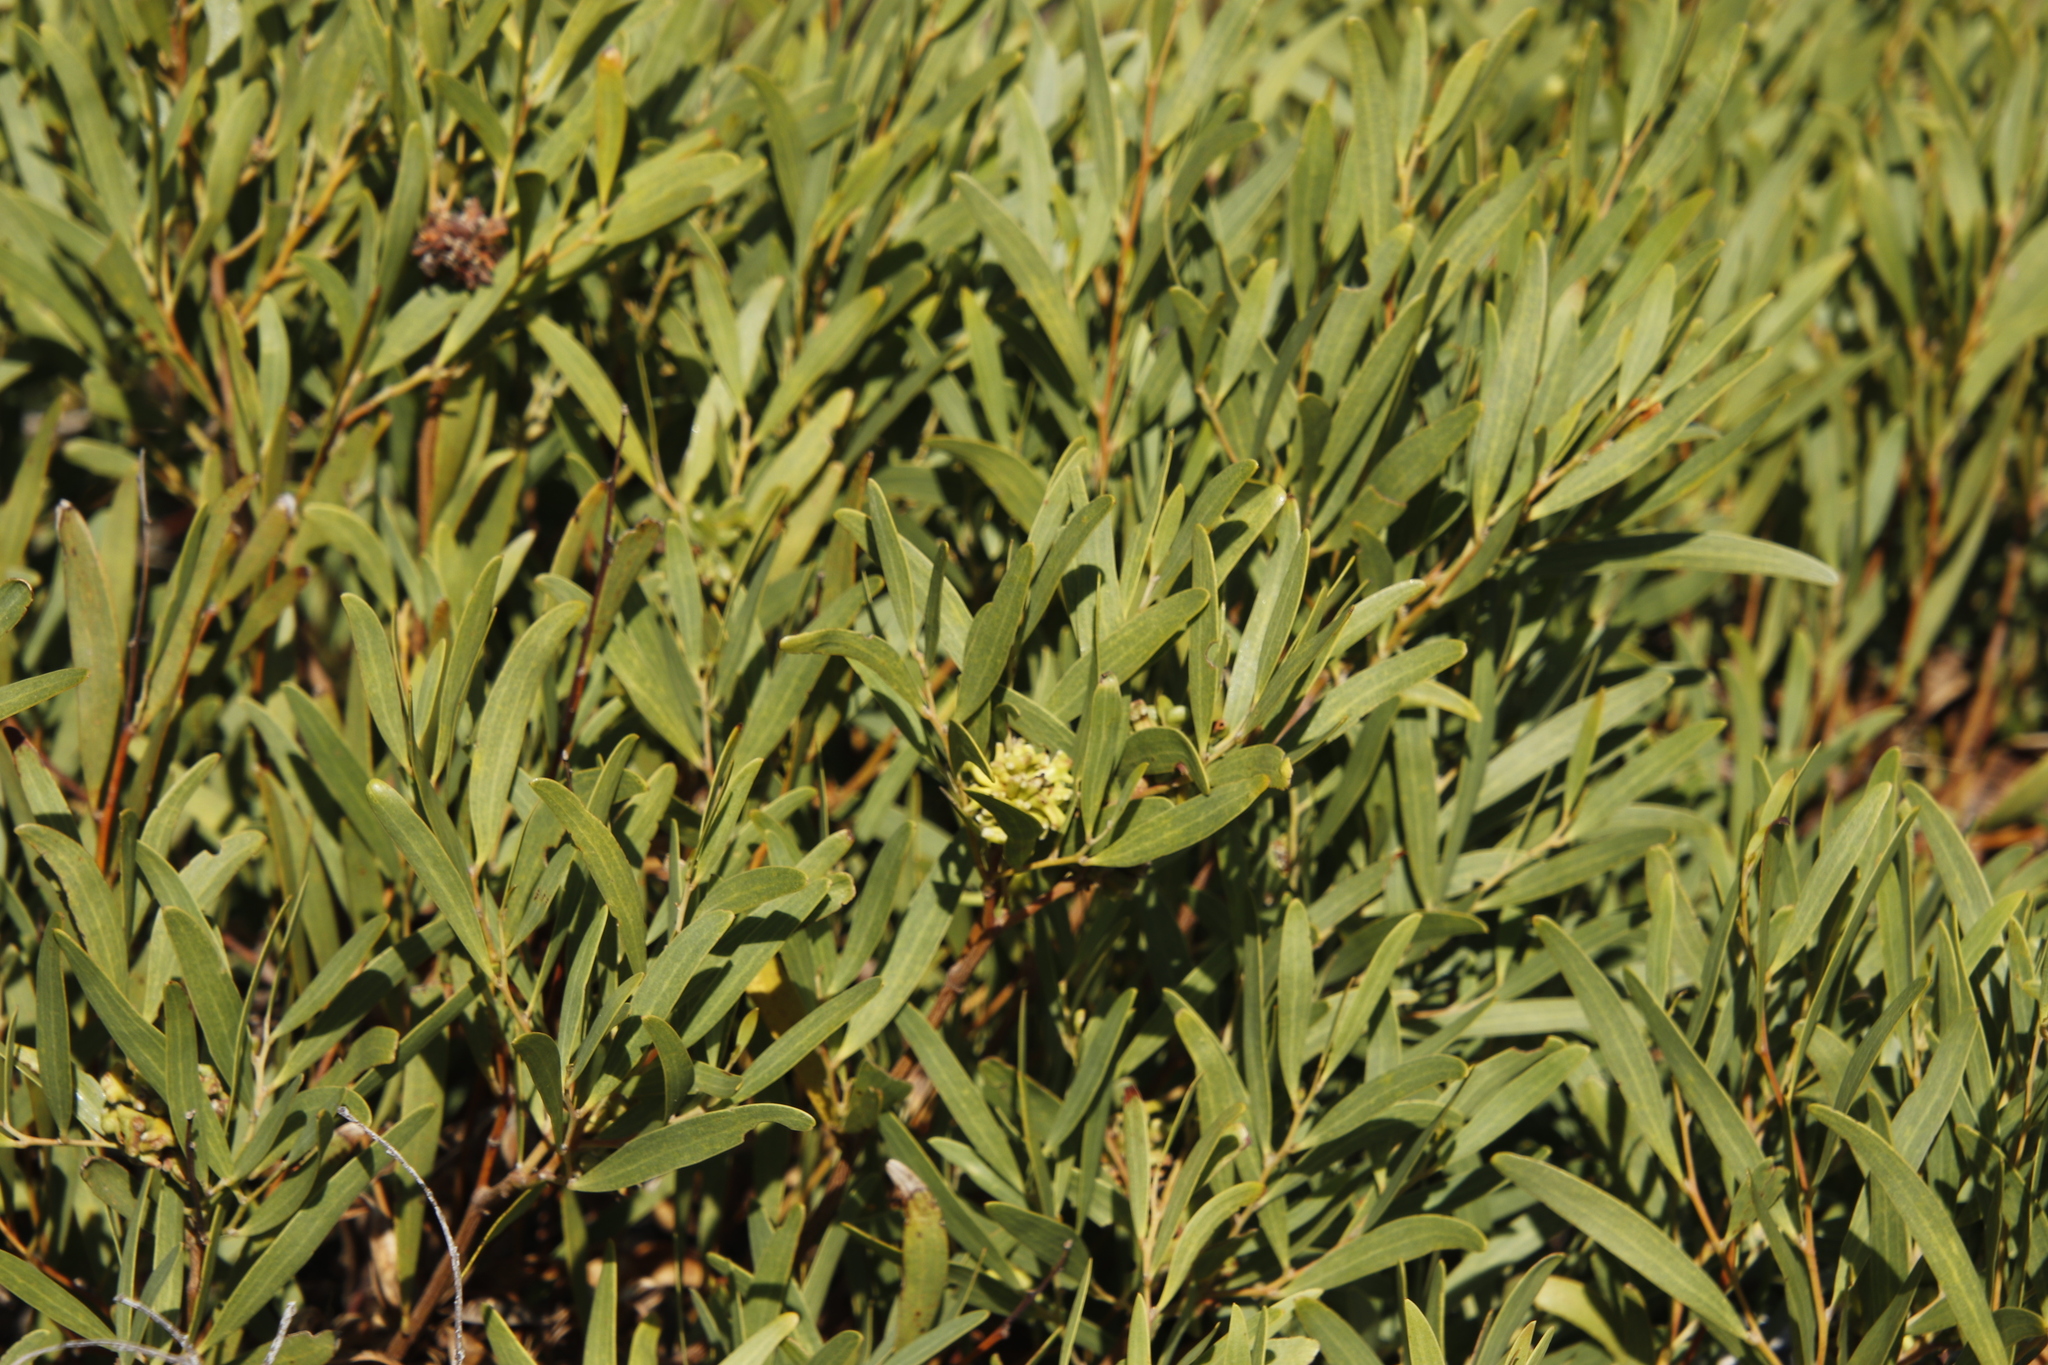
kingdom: Animalia
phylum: Arthropoda
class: Insecta
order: Diptera
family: Cecidomyiidae
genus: Dasineura
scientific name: Dasineura dielsi
